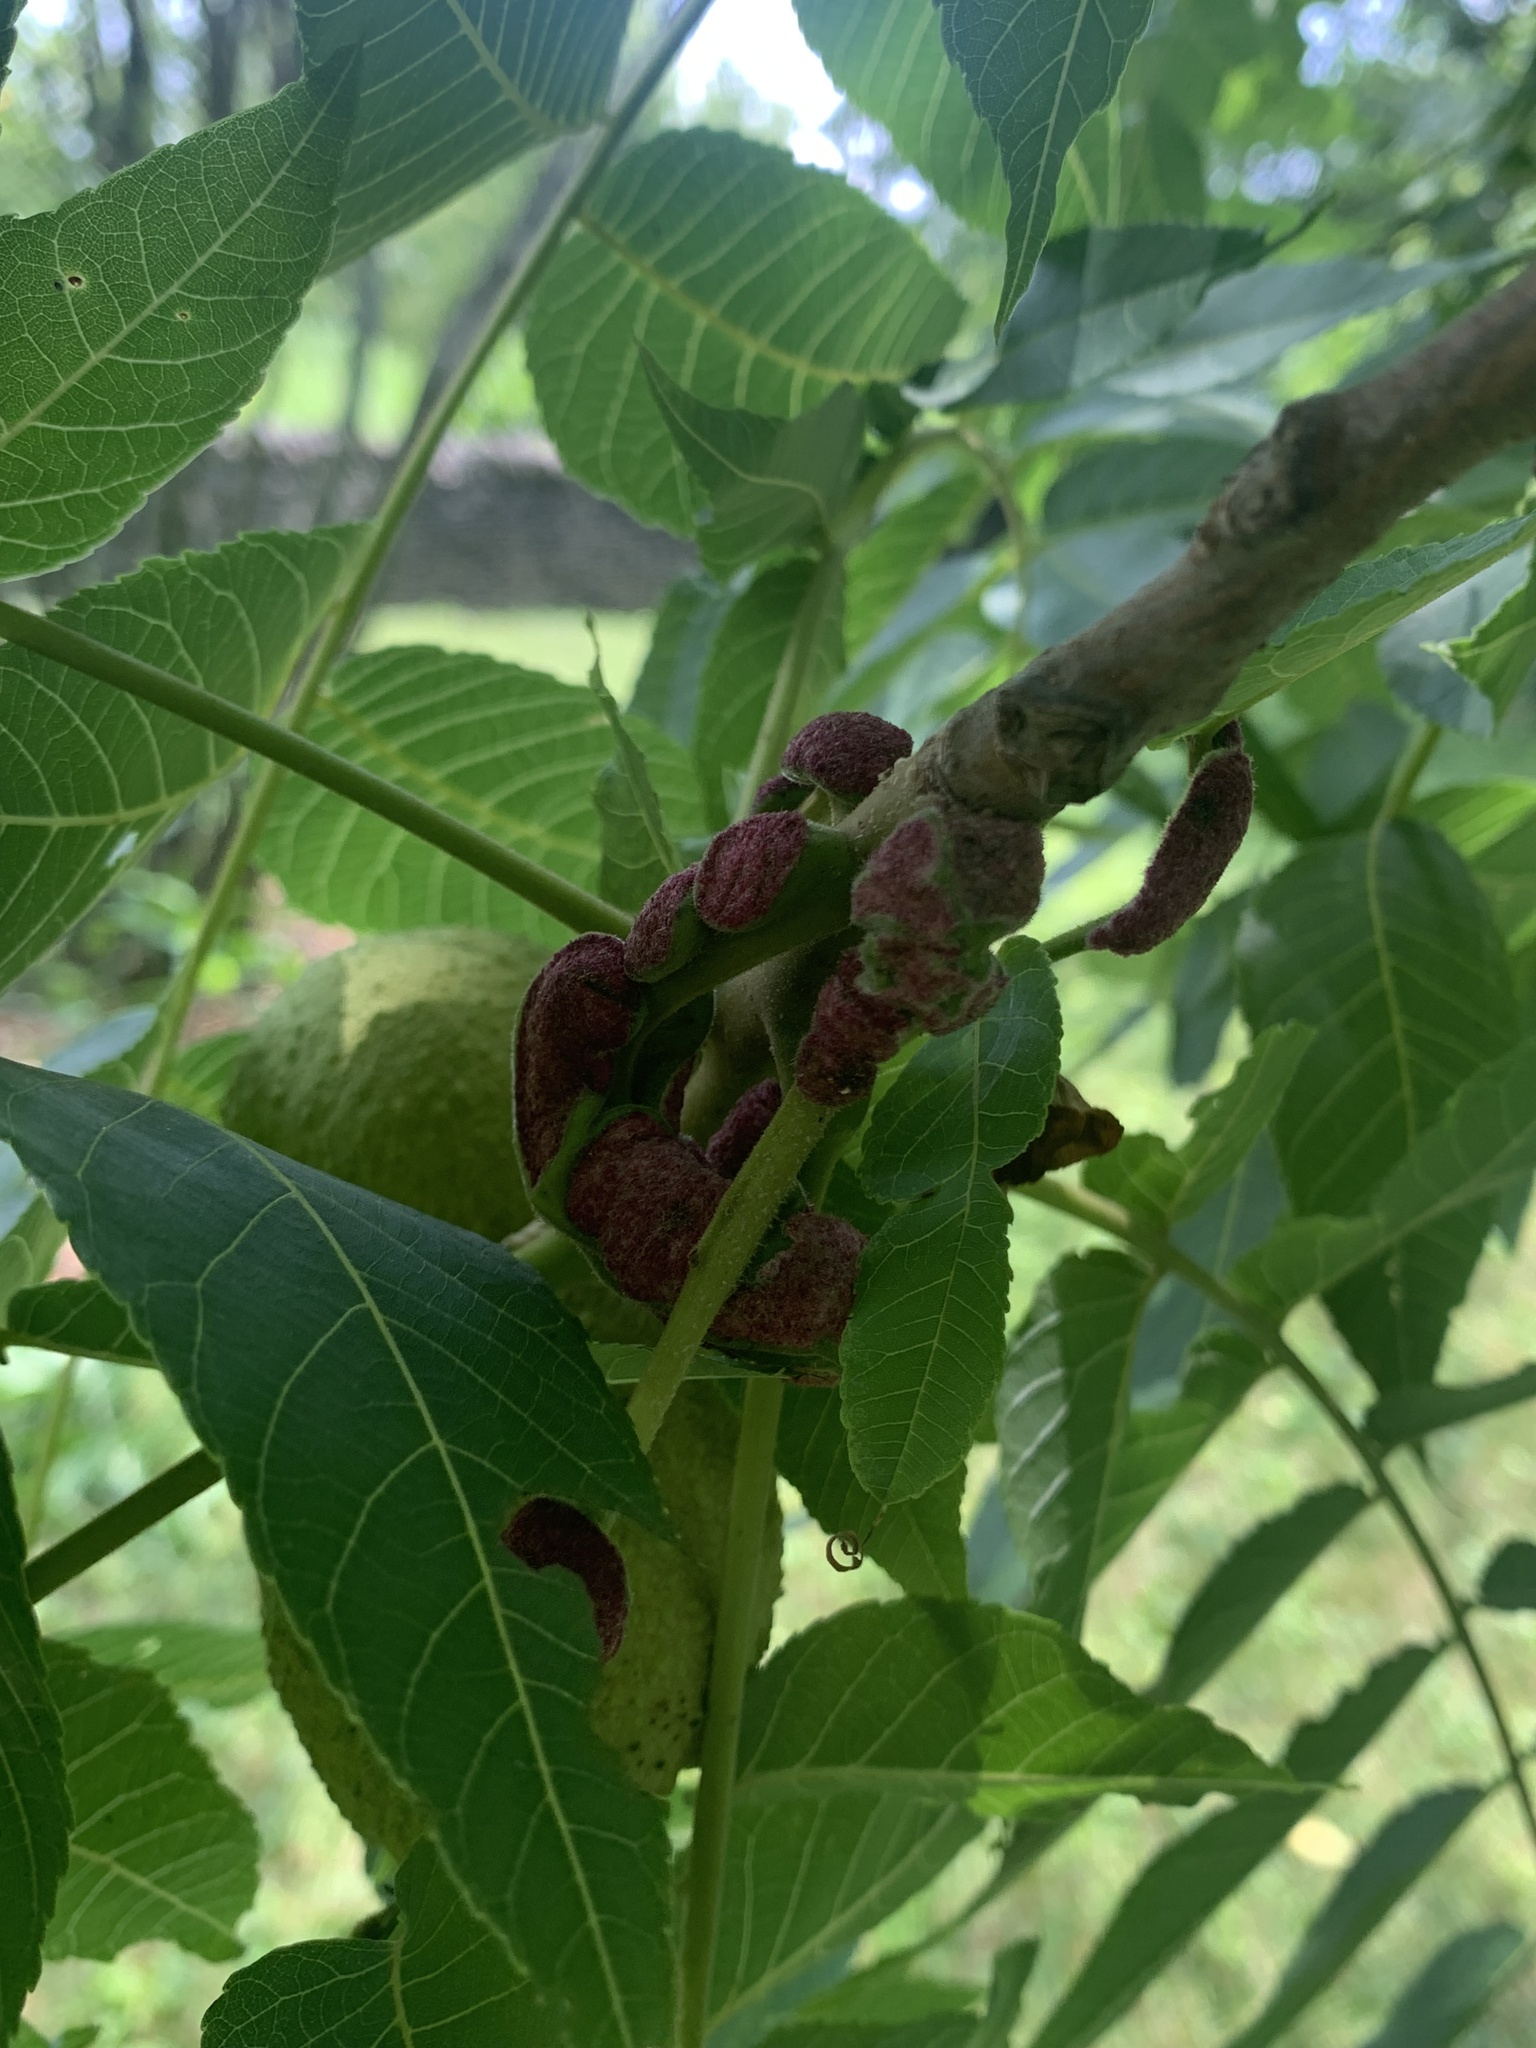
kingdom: Animalia
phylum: Arthropoda
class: Arachnida
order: Trombidiformes
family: Eriophyidae
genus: Aceria
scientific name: Aceria
